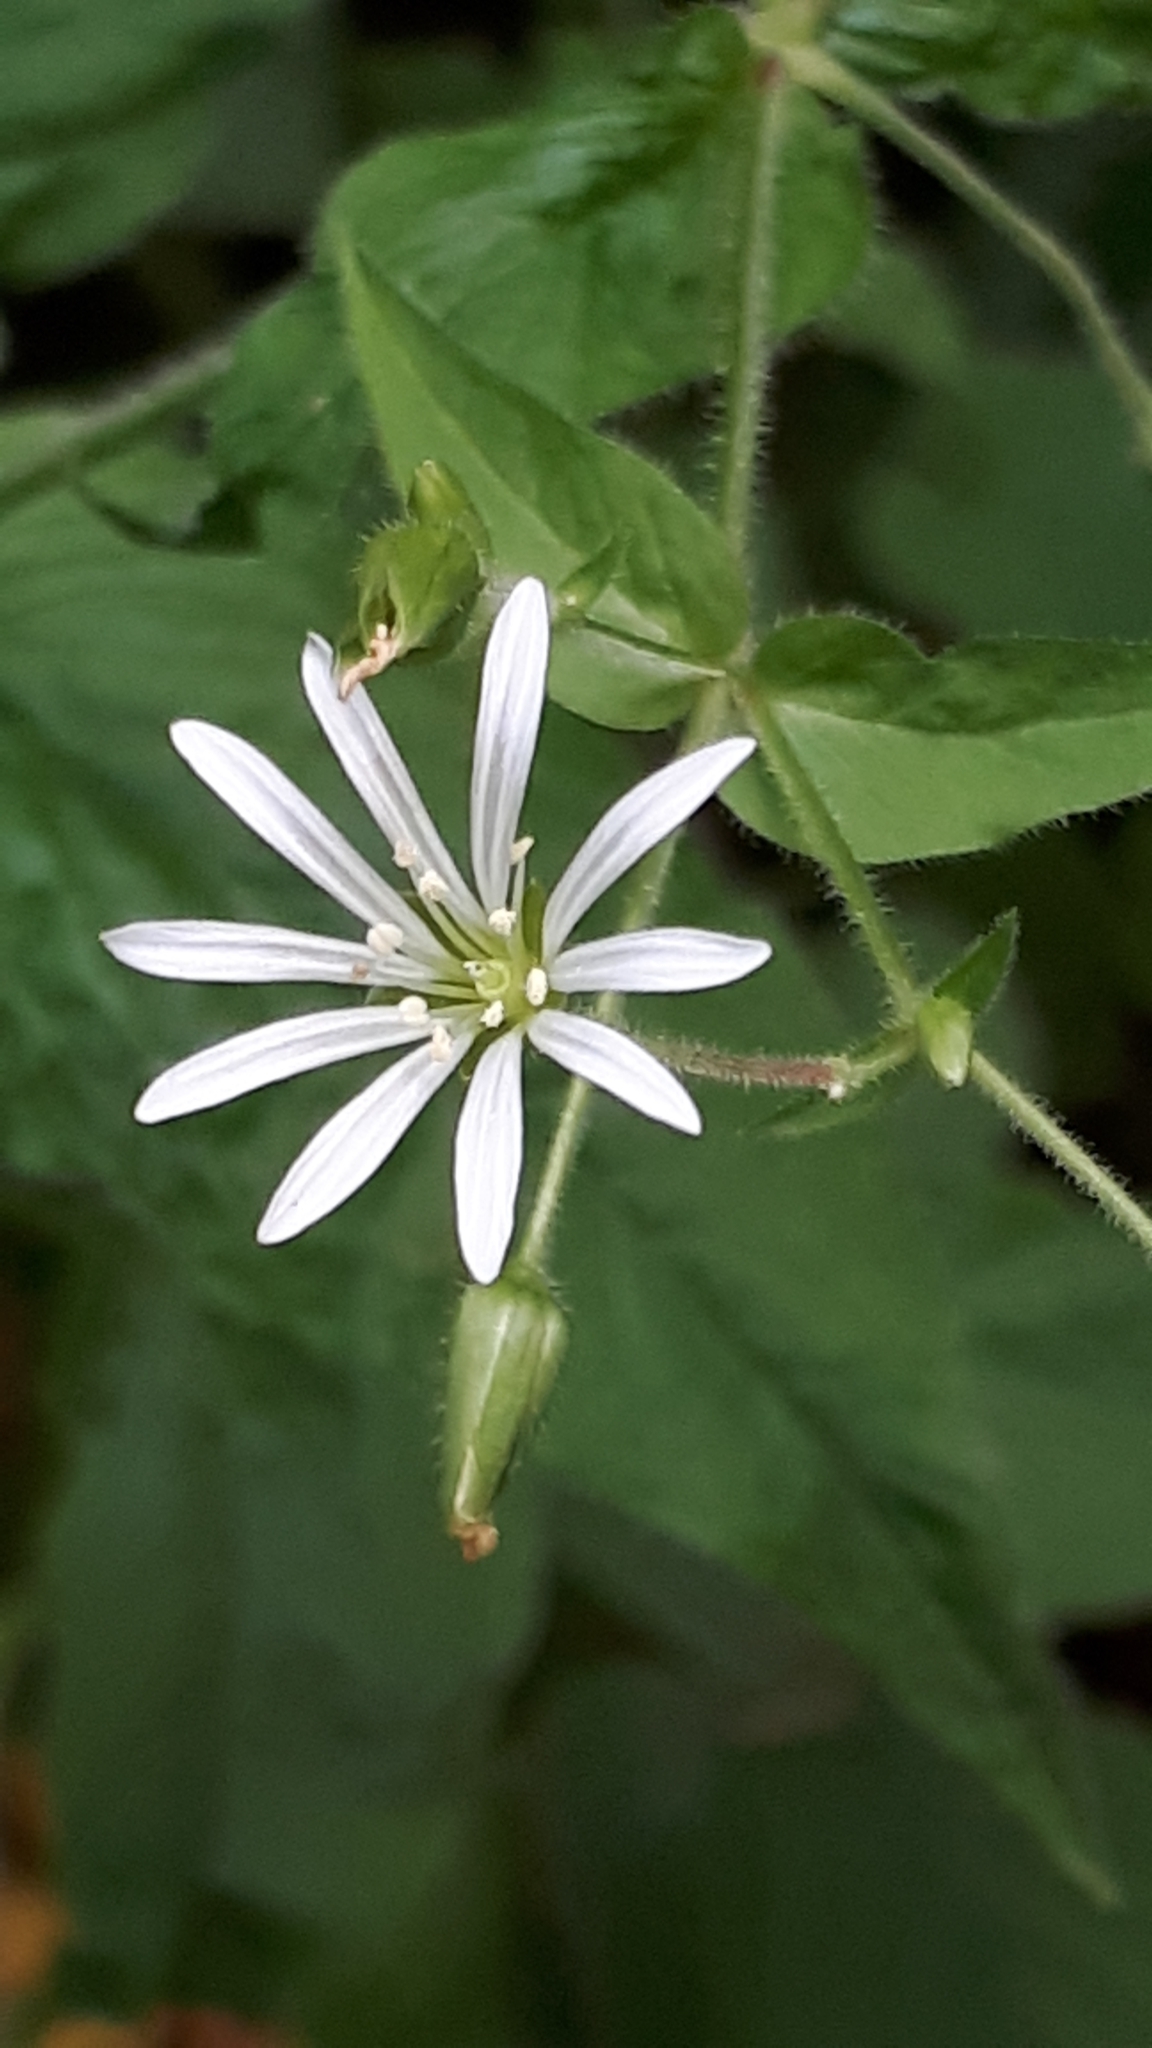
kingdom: Plantae
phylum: Tracheophyta
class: Magnoliopsida
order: Caryophyllales
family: Caryophyllaceae
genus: Stellaria
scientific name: Stellaria nemorum
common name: Wood stitchwort
